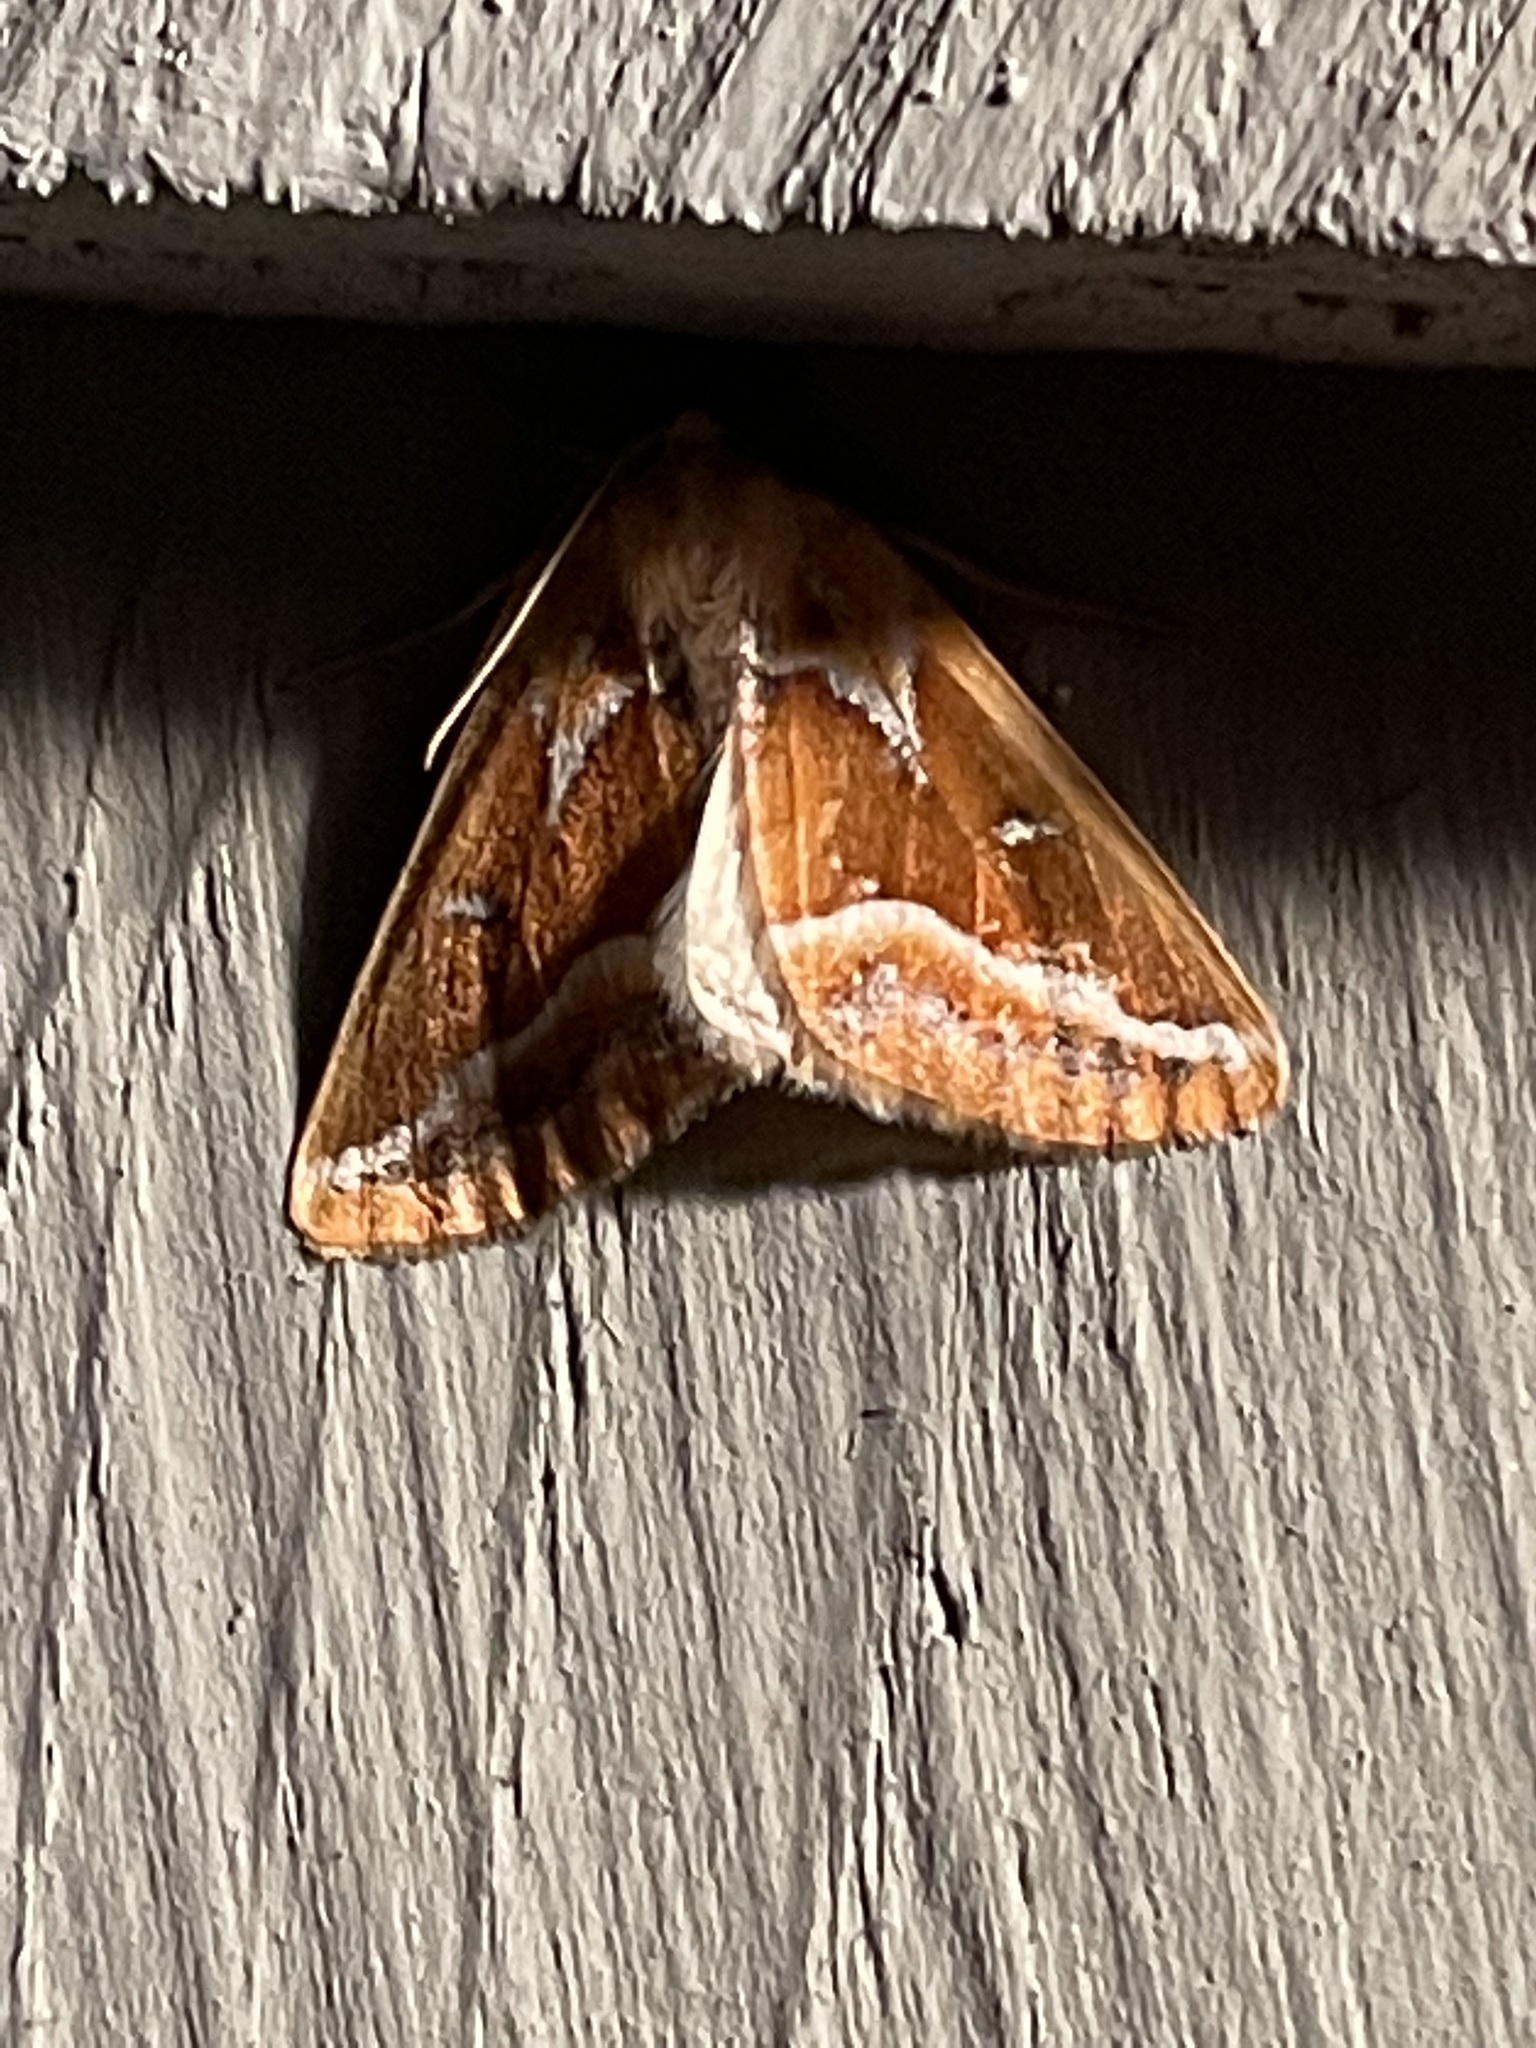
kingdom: Animalia
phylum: Arthropoda
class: Insecta
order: Lepidoptera
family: Geometridae
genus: Caripeta
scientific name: Caripeta angustiorata
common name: Brown pine looper
